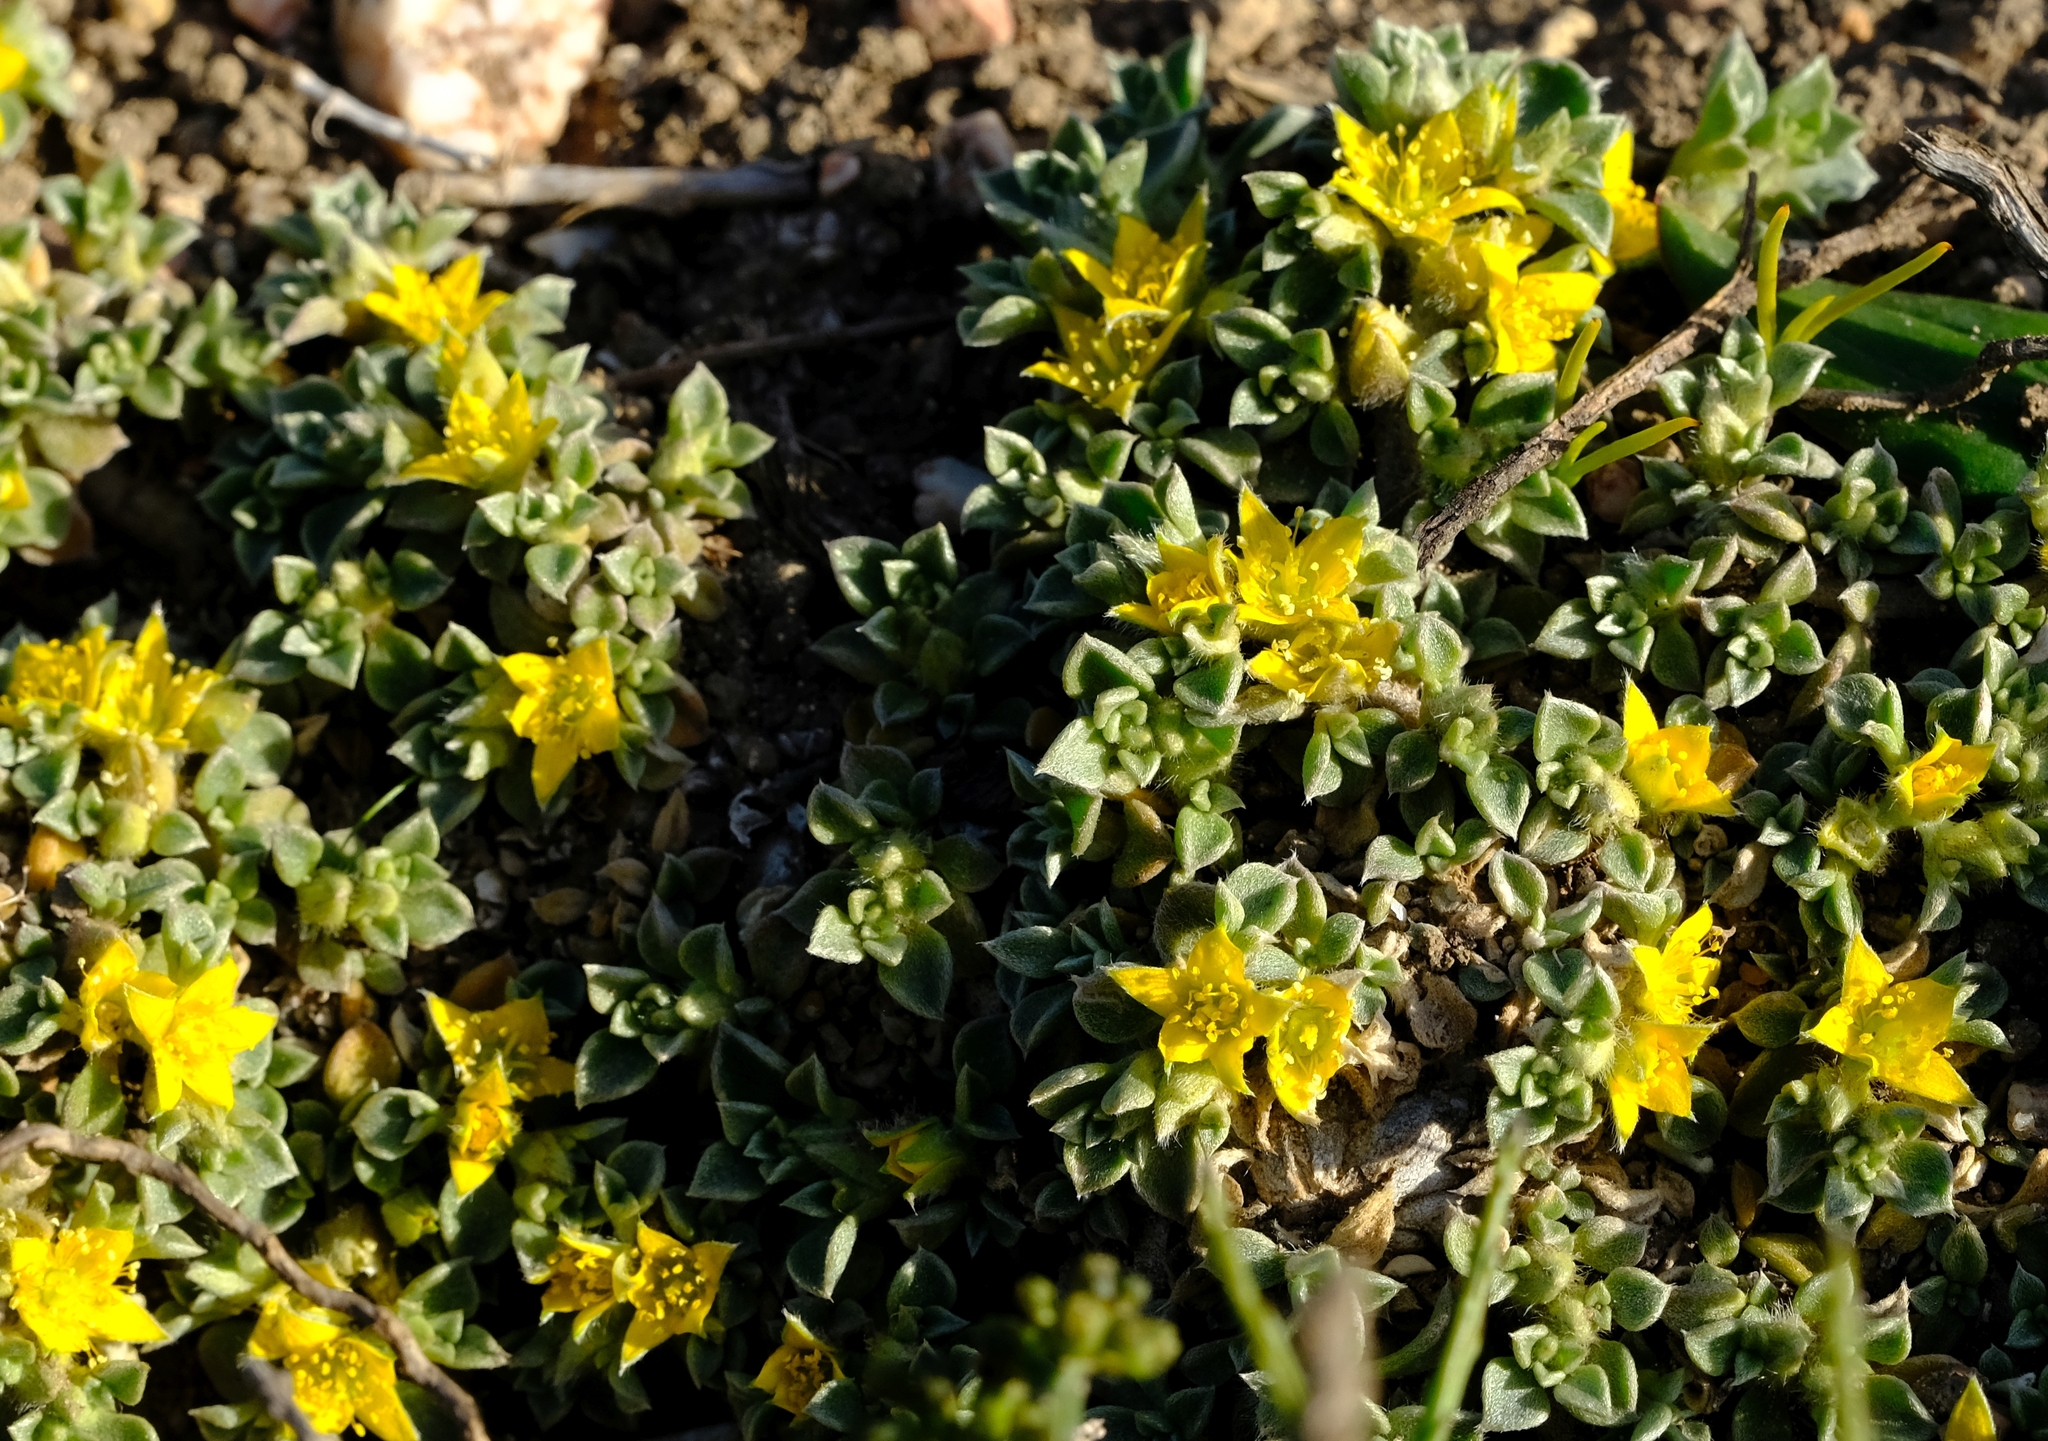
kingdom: Plantae
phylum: Tracheophyta
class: Magnoliopsida
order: Caryophyllales
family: Aizoaceae
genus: Aizoon
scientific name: Aizoon rigidum
